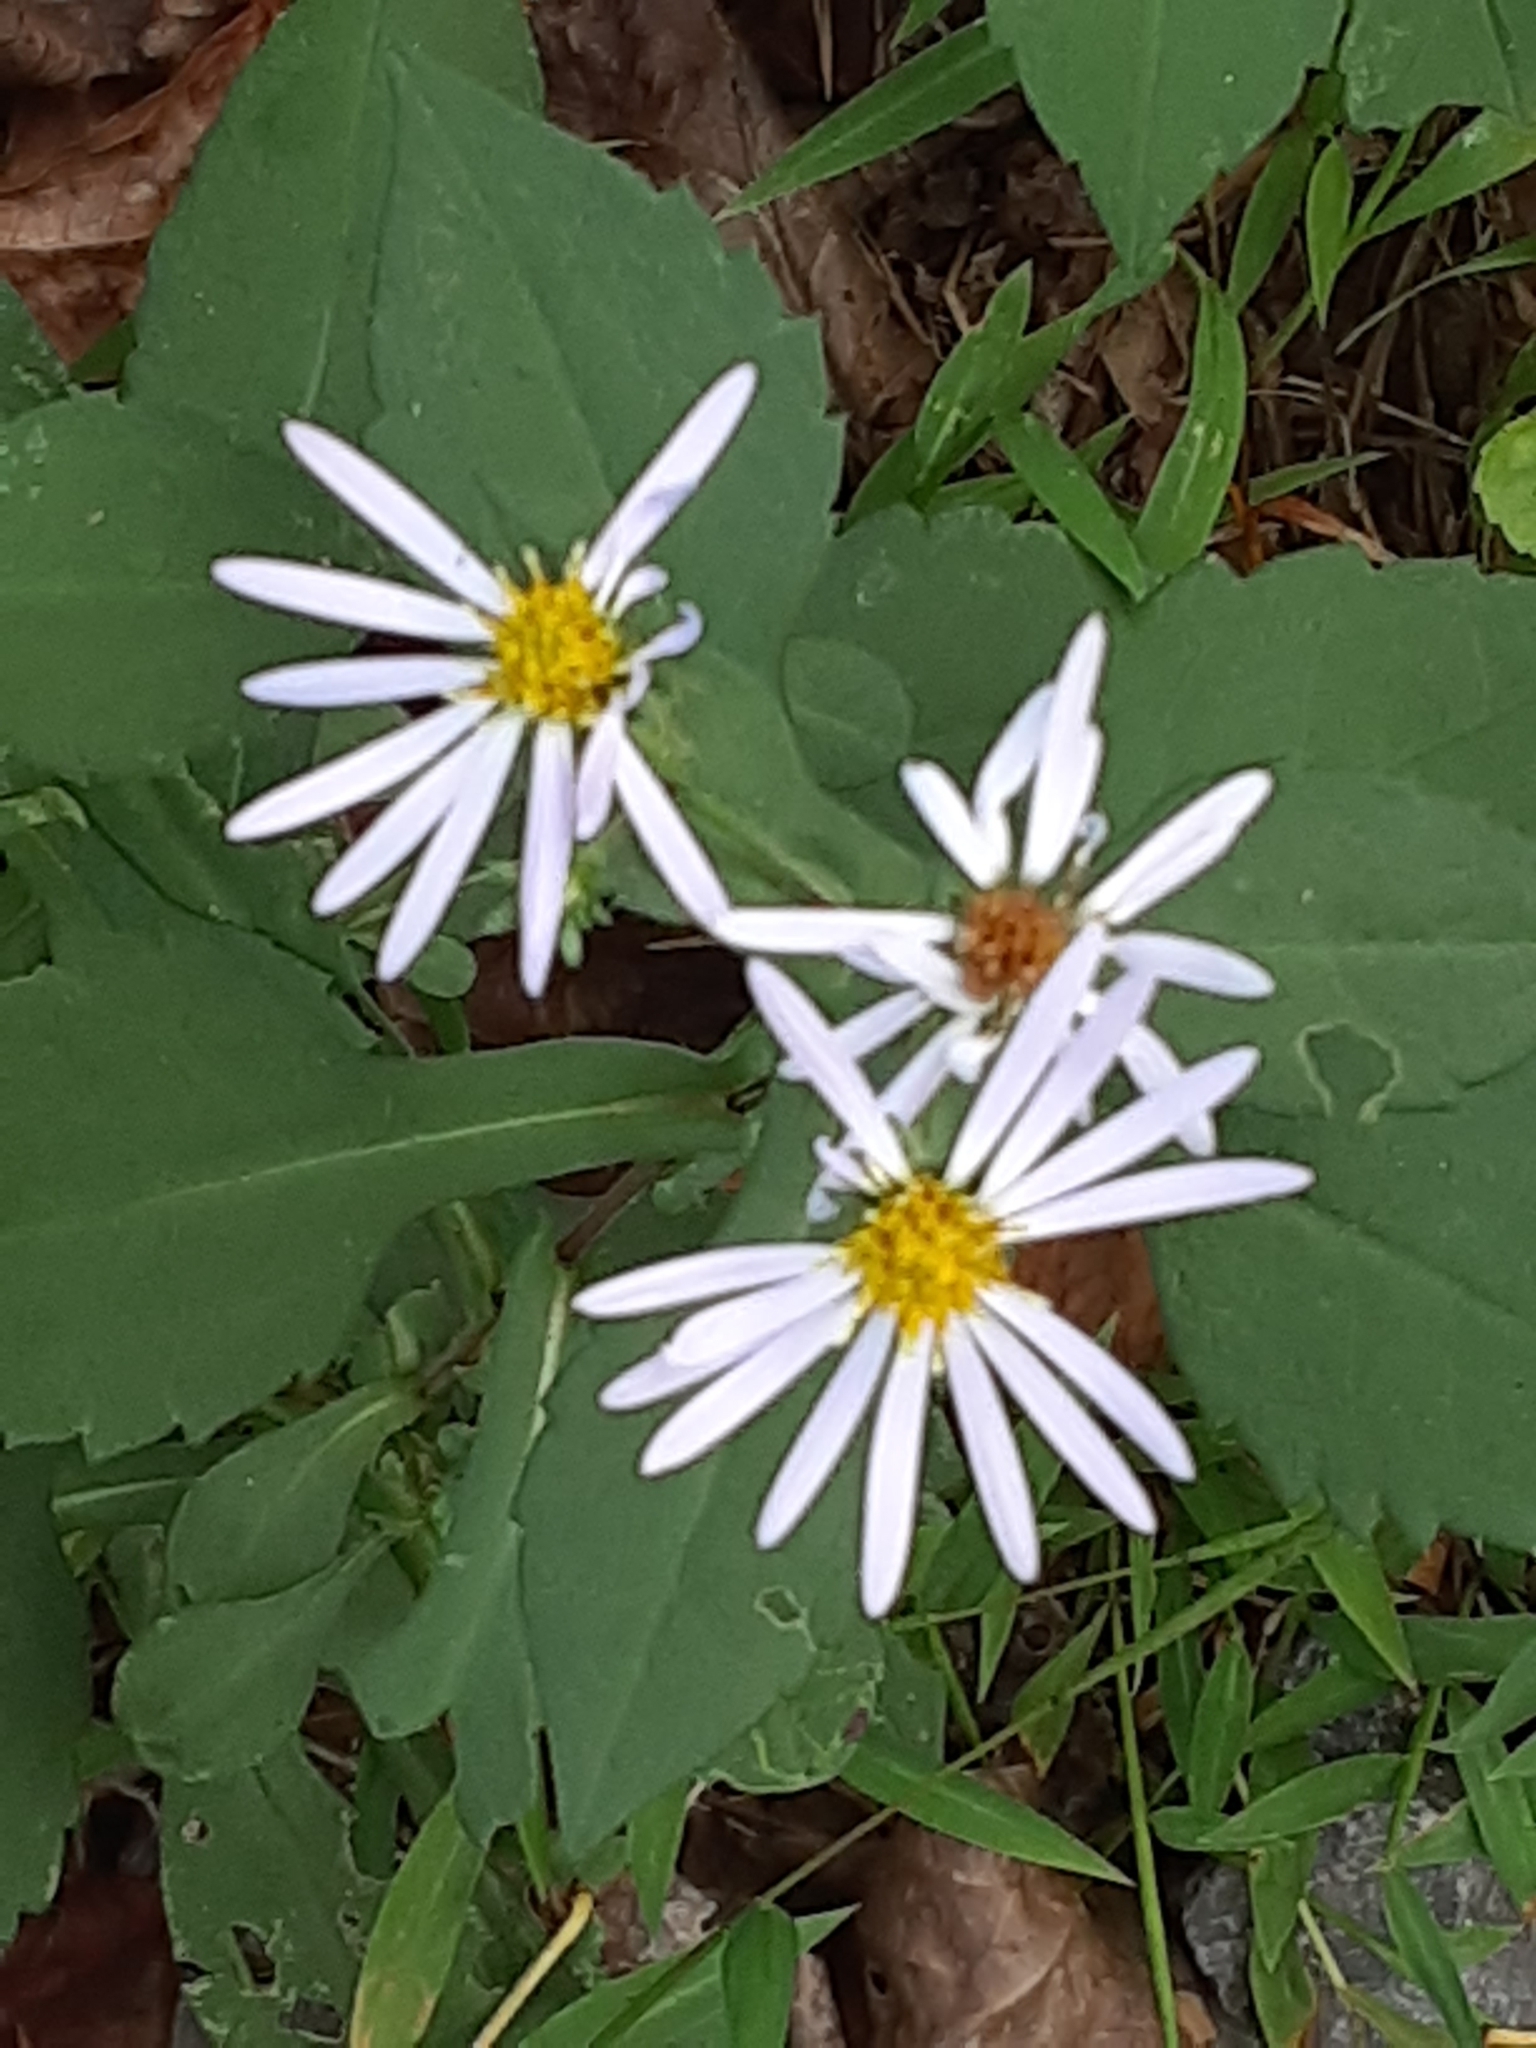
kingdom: Plantae
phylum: Tracheophyta
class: Magnoliopsida
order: Asterales
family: Asteraceae
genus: Symphyotrichum
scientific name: Symphyotrichum prenanthoides
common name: Crooked-stem aster
